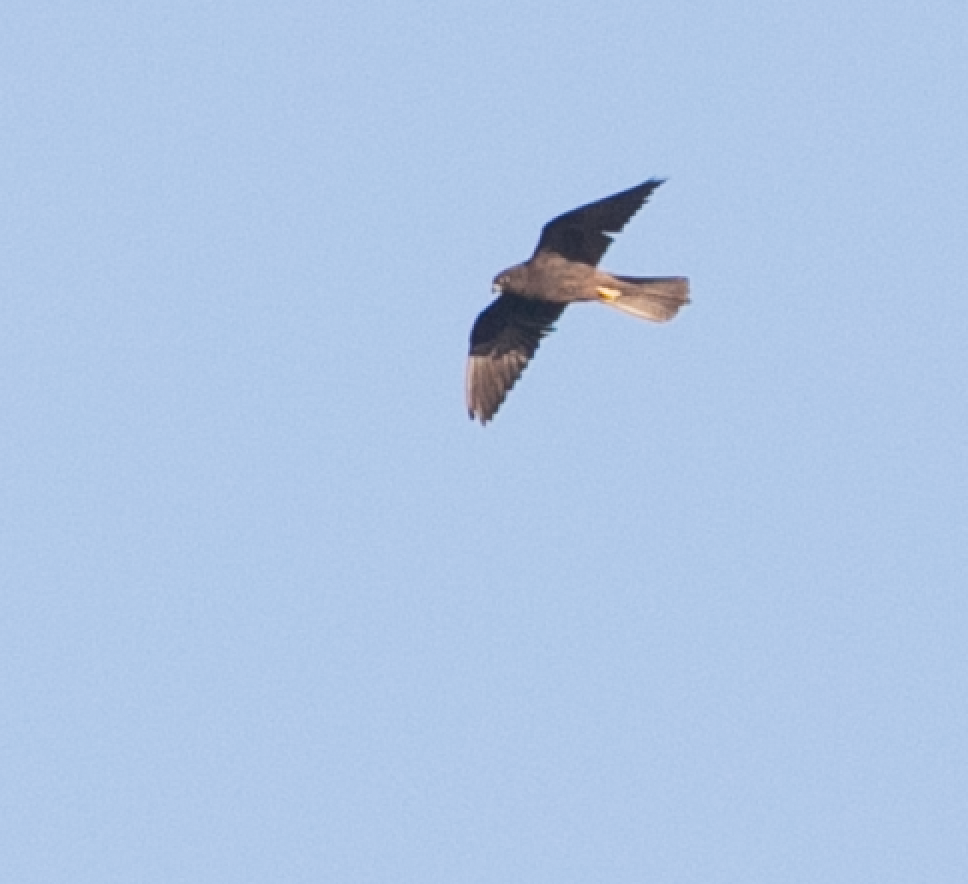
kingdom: Animalia
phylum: Chordata
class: Aves
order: Falconiformes
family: Falconidae
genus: Falco
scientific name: Falco eleonorae
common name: Eleonora's falcon
